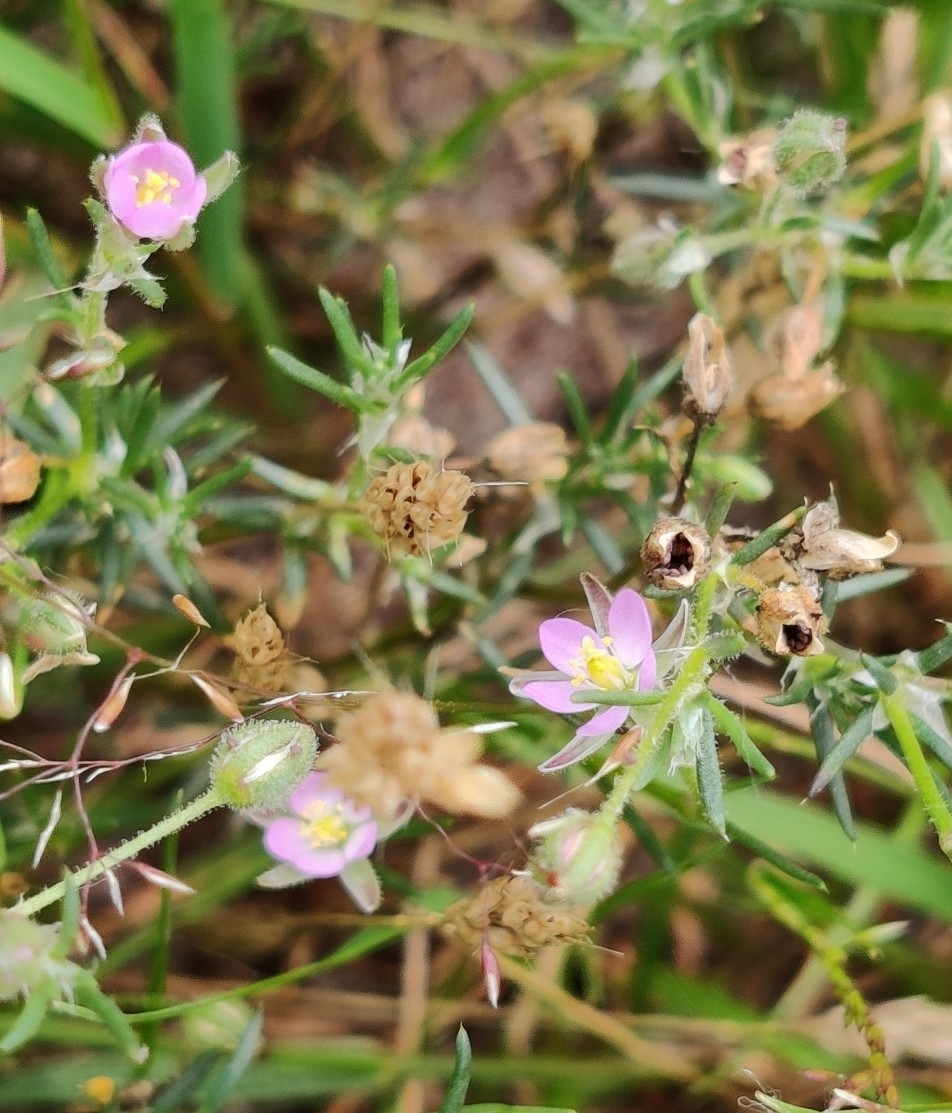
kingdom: Plantae
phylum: Tracheophyta
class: Magnoliopsida
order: Caryophyllales
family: Caryophyllaceae
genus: Spergularia
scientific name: Spergularia rubra
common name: Red sand-spurrey
